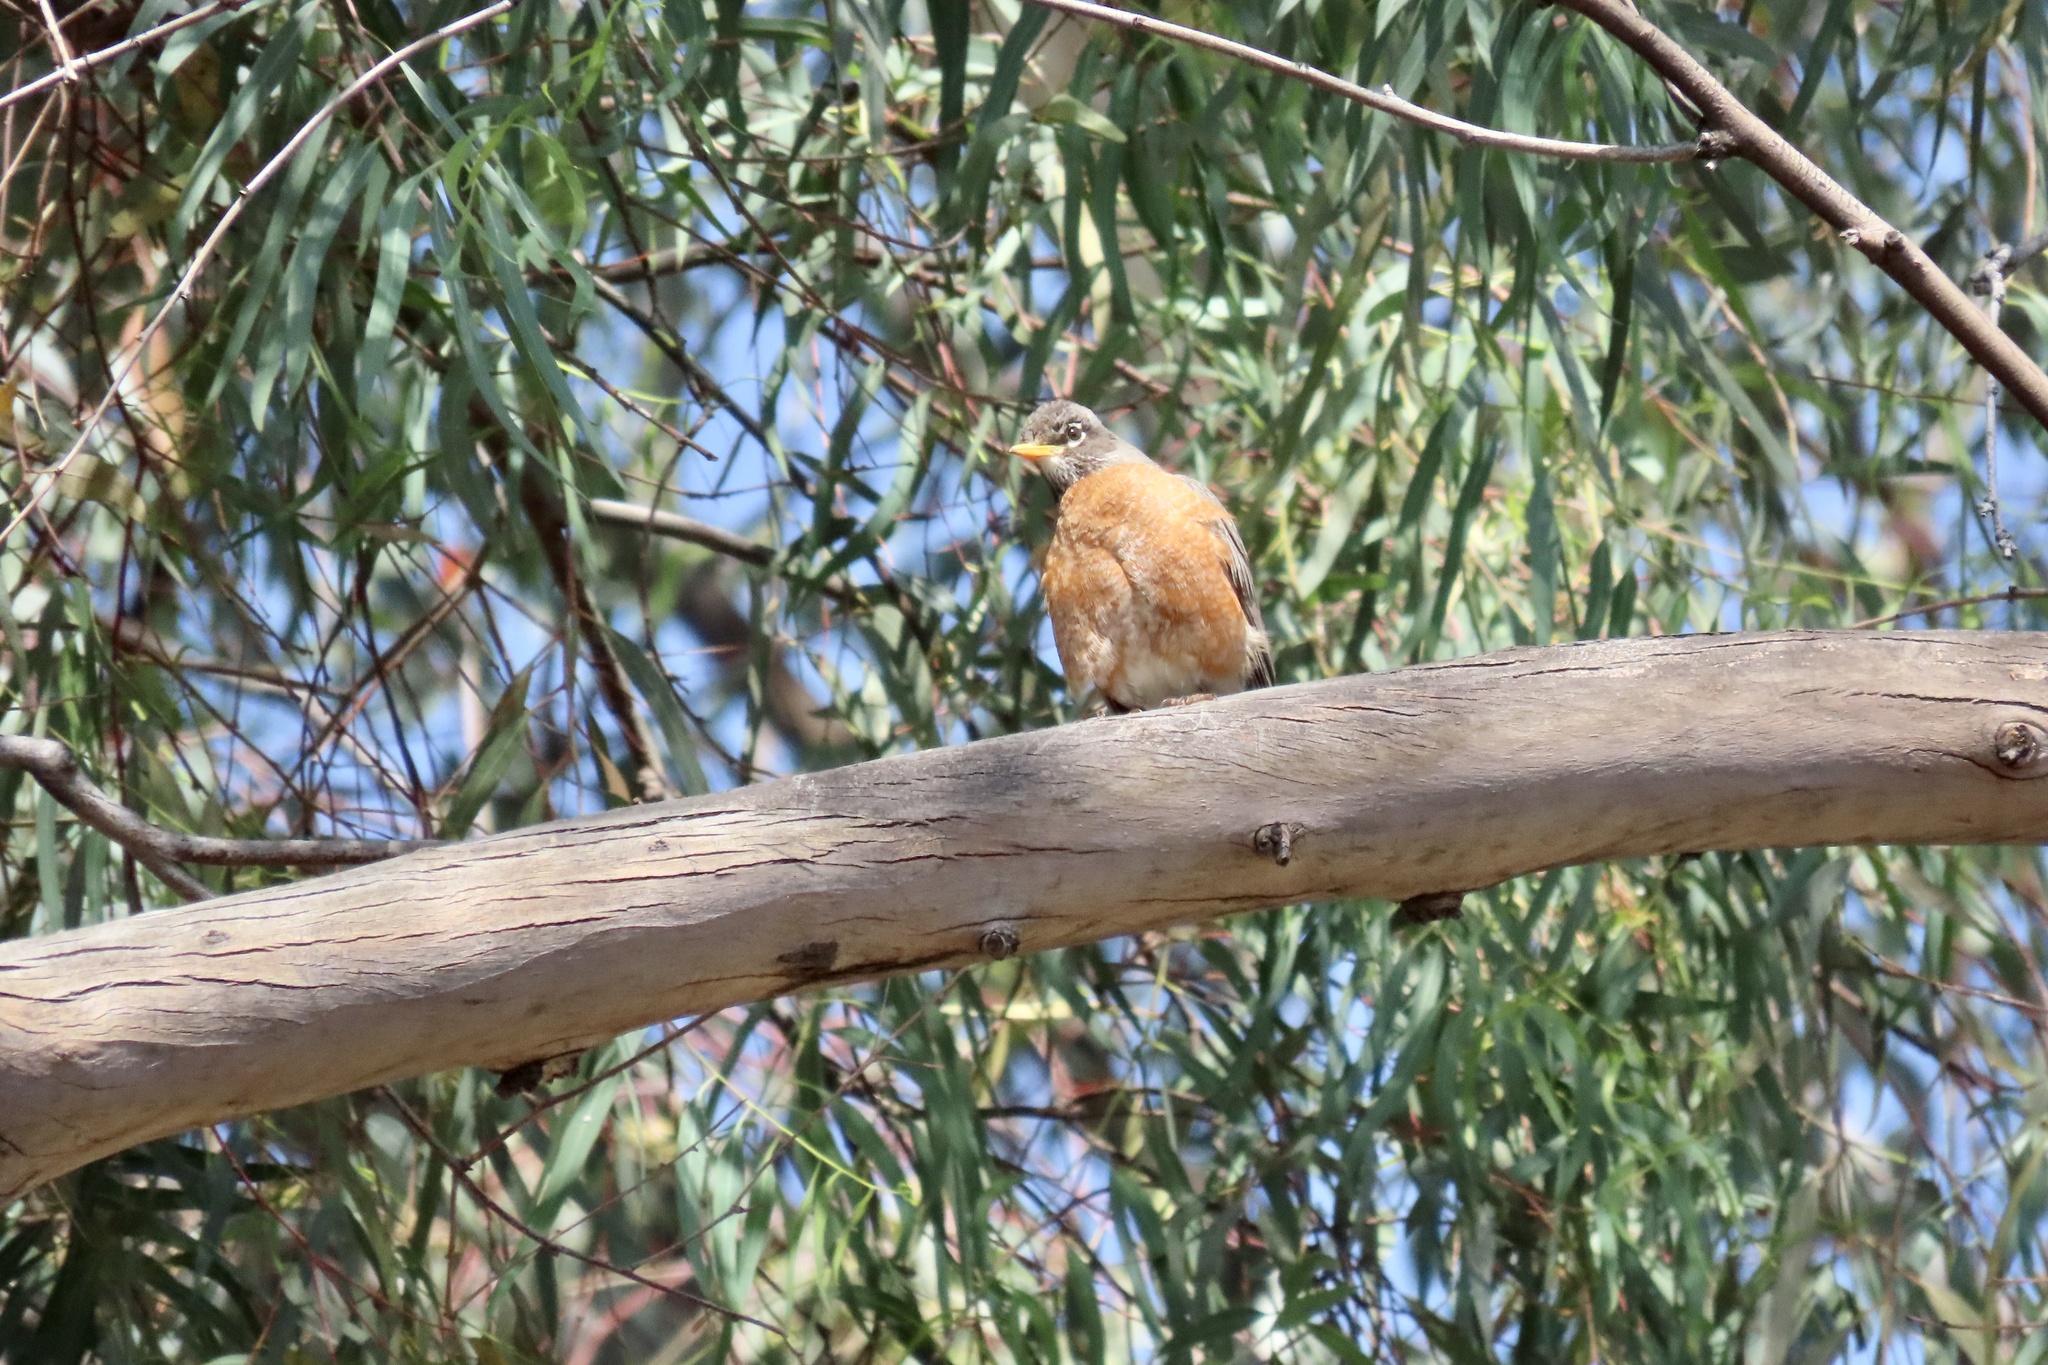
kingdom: Animalia
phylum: Chordata
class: Aves
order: Passeriformes
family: Turdidae
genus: Turdus
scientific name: Turdus migratorius
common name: American robin
